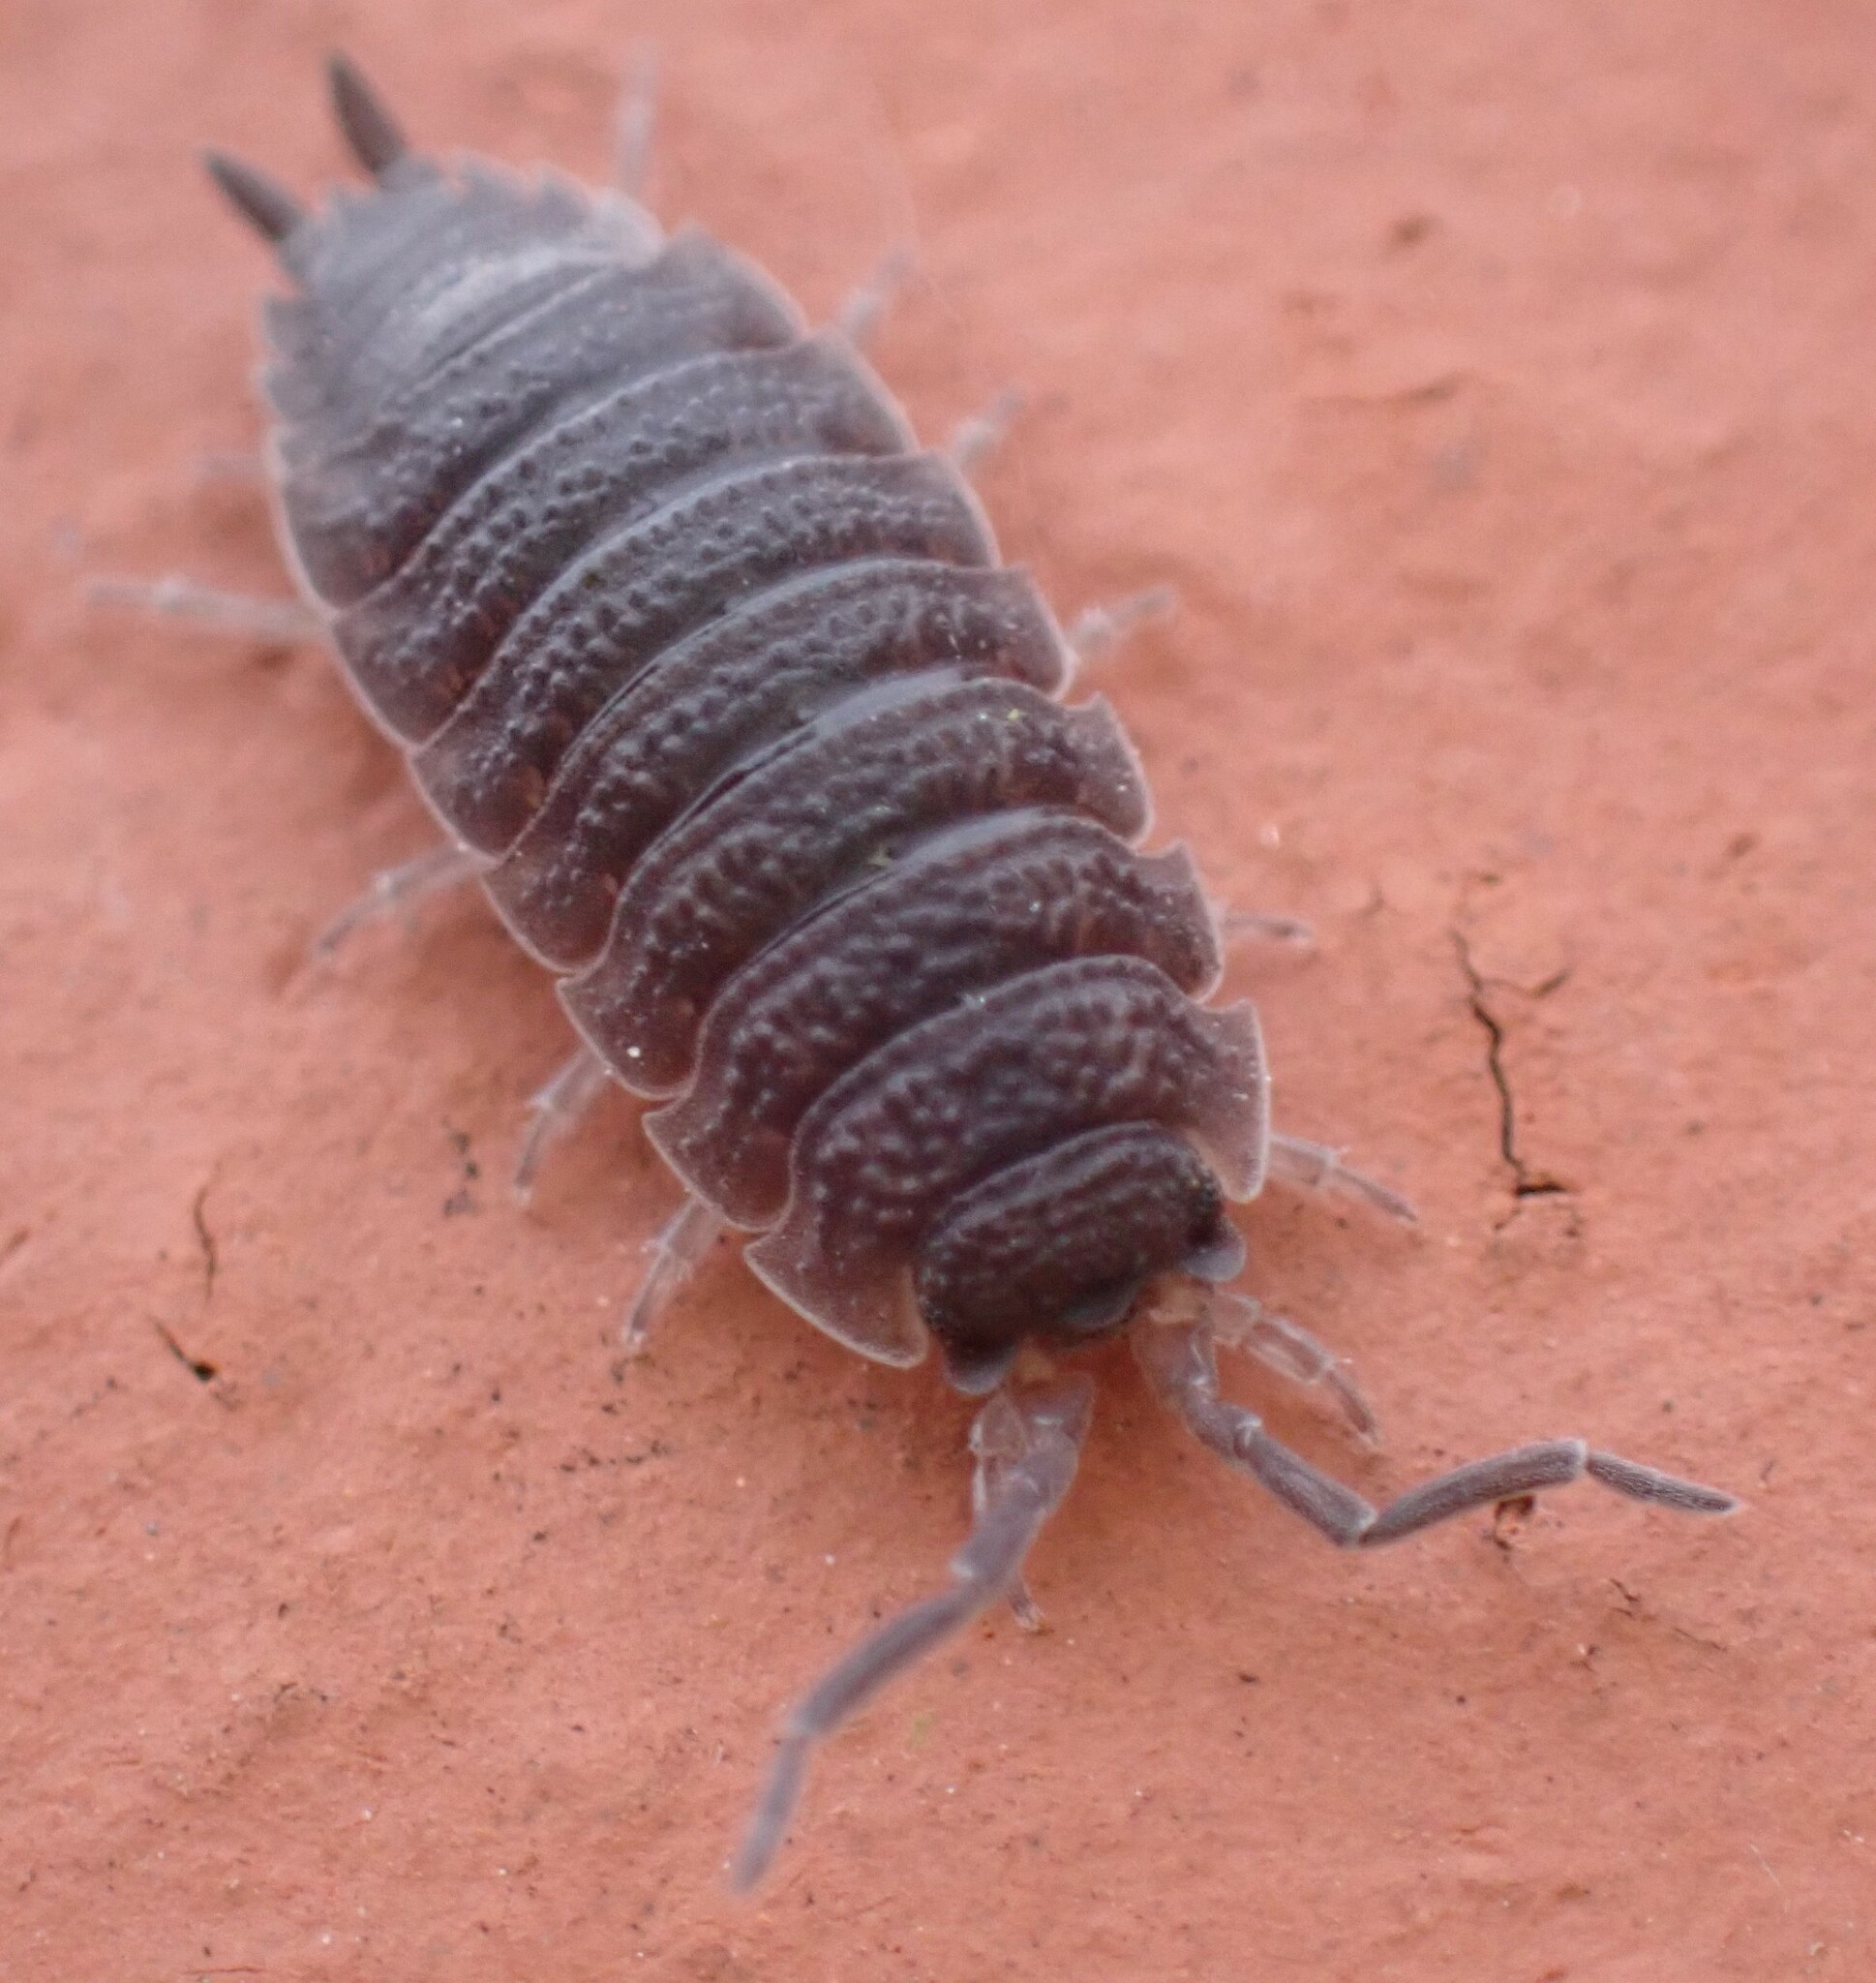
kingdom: Animalia
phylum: Arthropoda
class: Malacostraca
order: Isopoda
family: Porcellionidae
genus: Porcellio
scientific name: Porcellio scaber
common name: Common rough woodlouse
